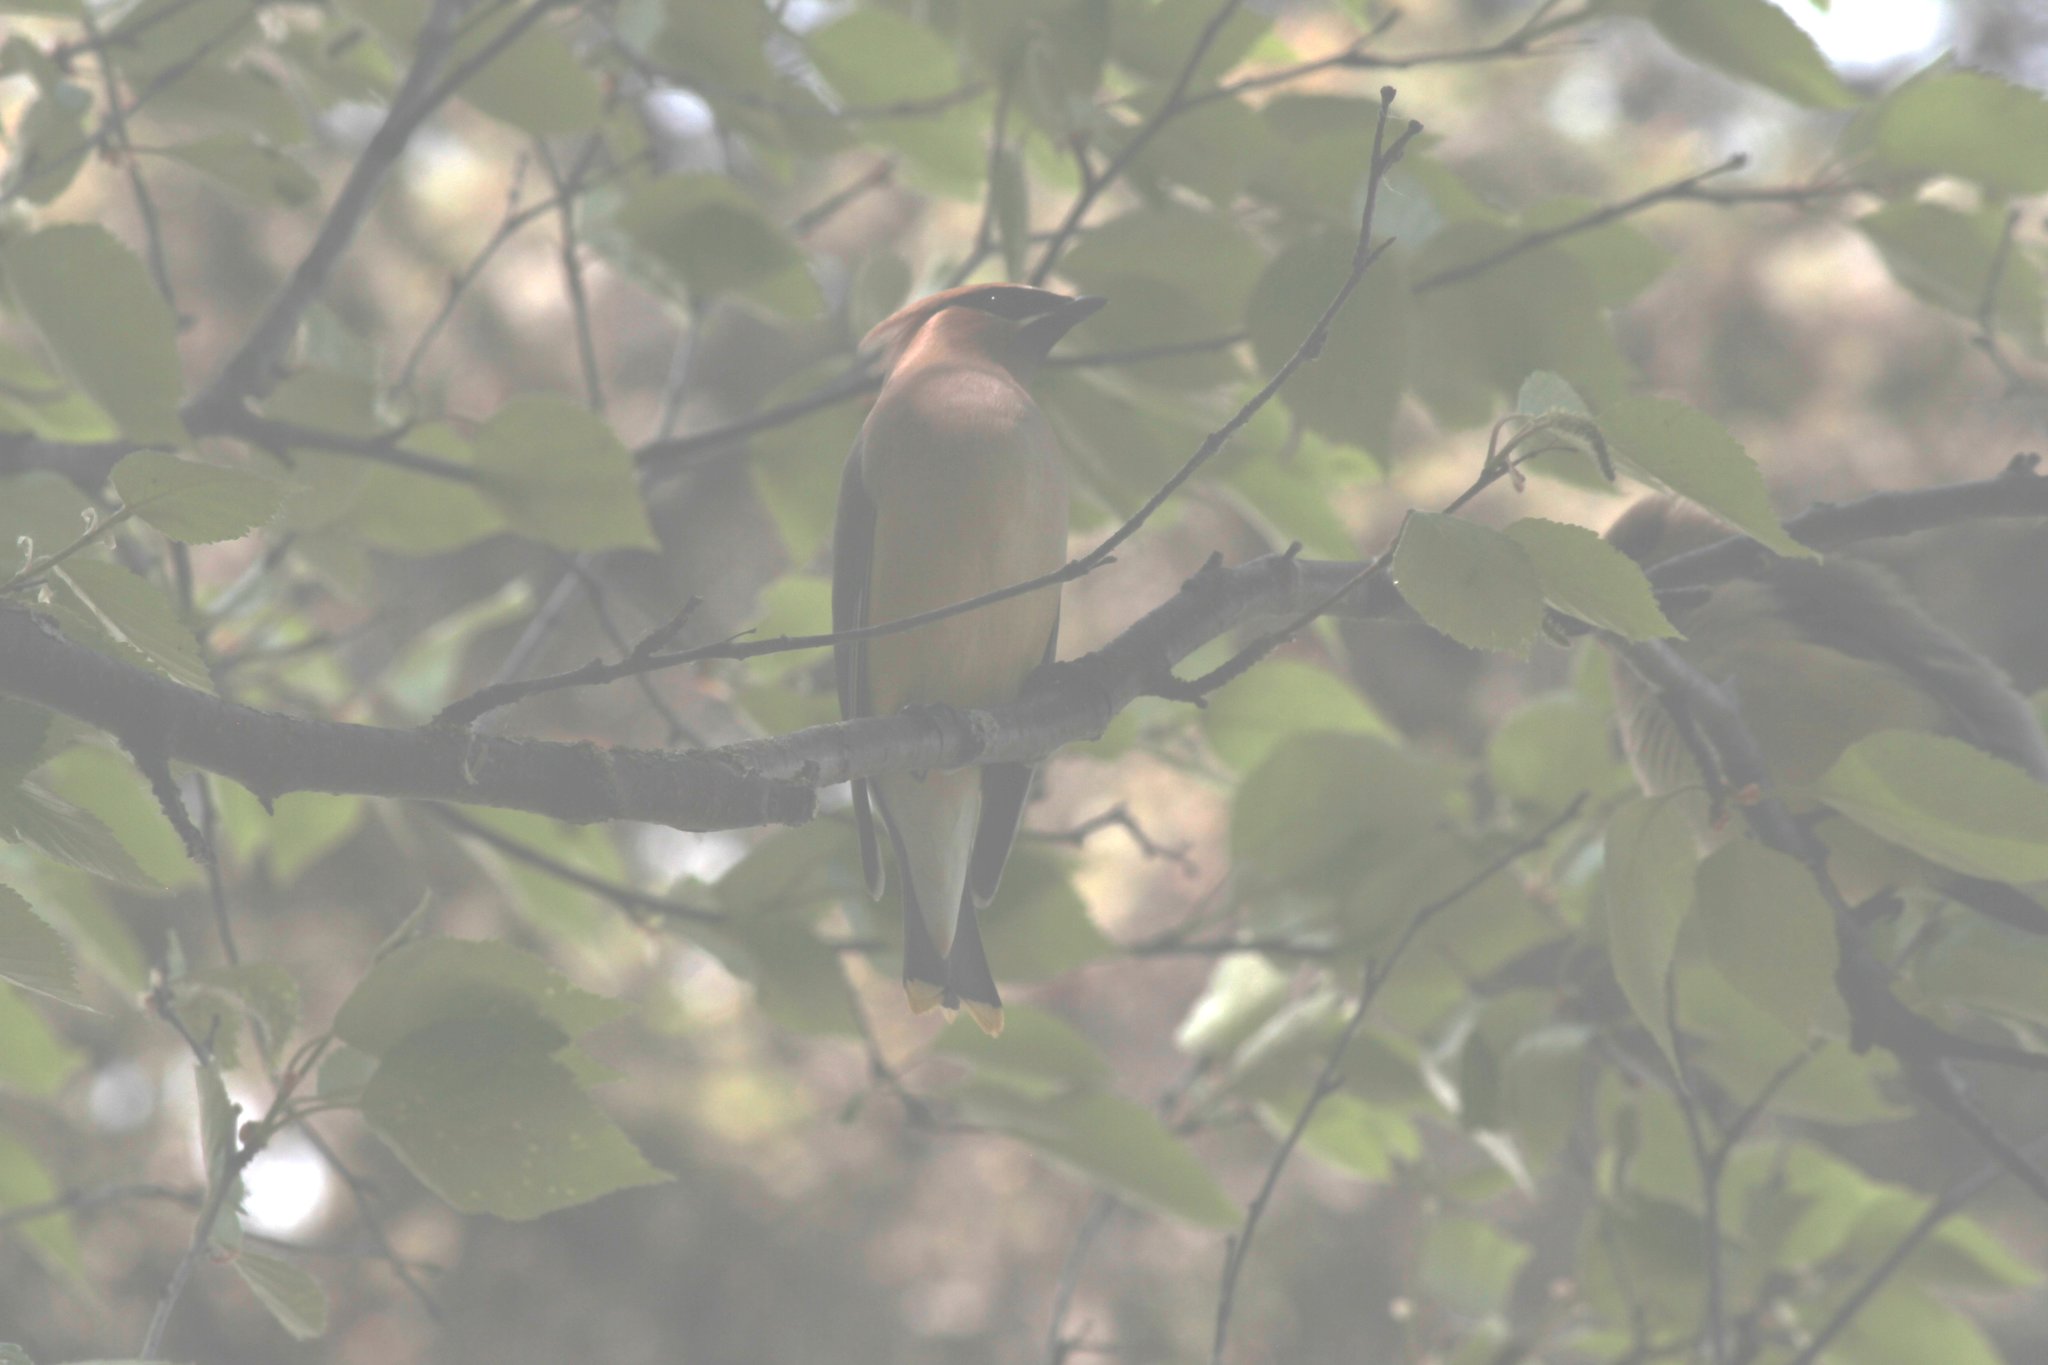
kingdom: Animalia
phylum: Chordata
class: Aves
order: Passeriformes
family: Bombycillidae
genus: Bombycilla
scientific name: Bombycilla cedrorum
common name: Cedar waxwing
